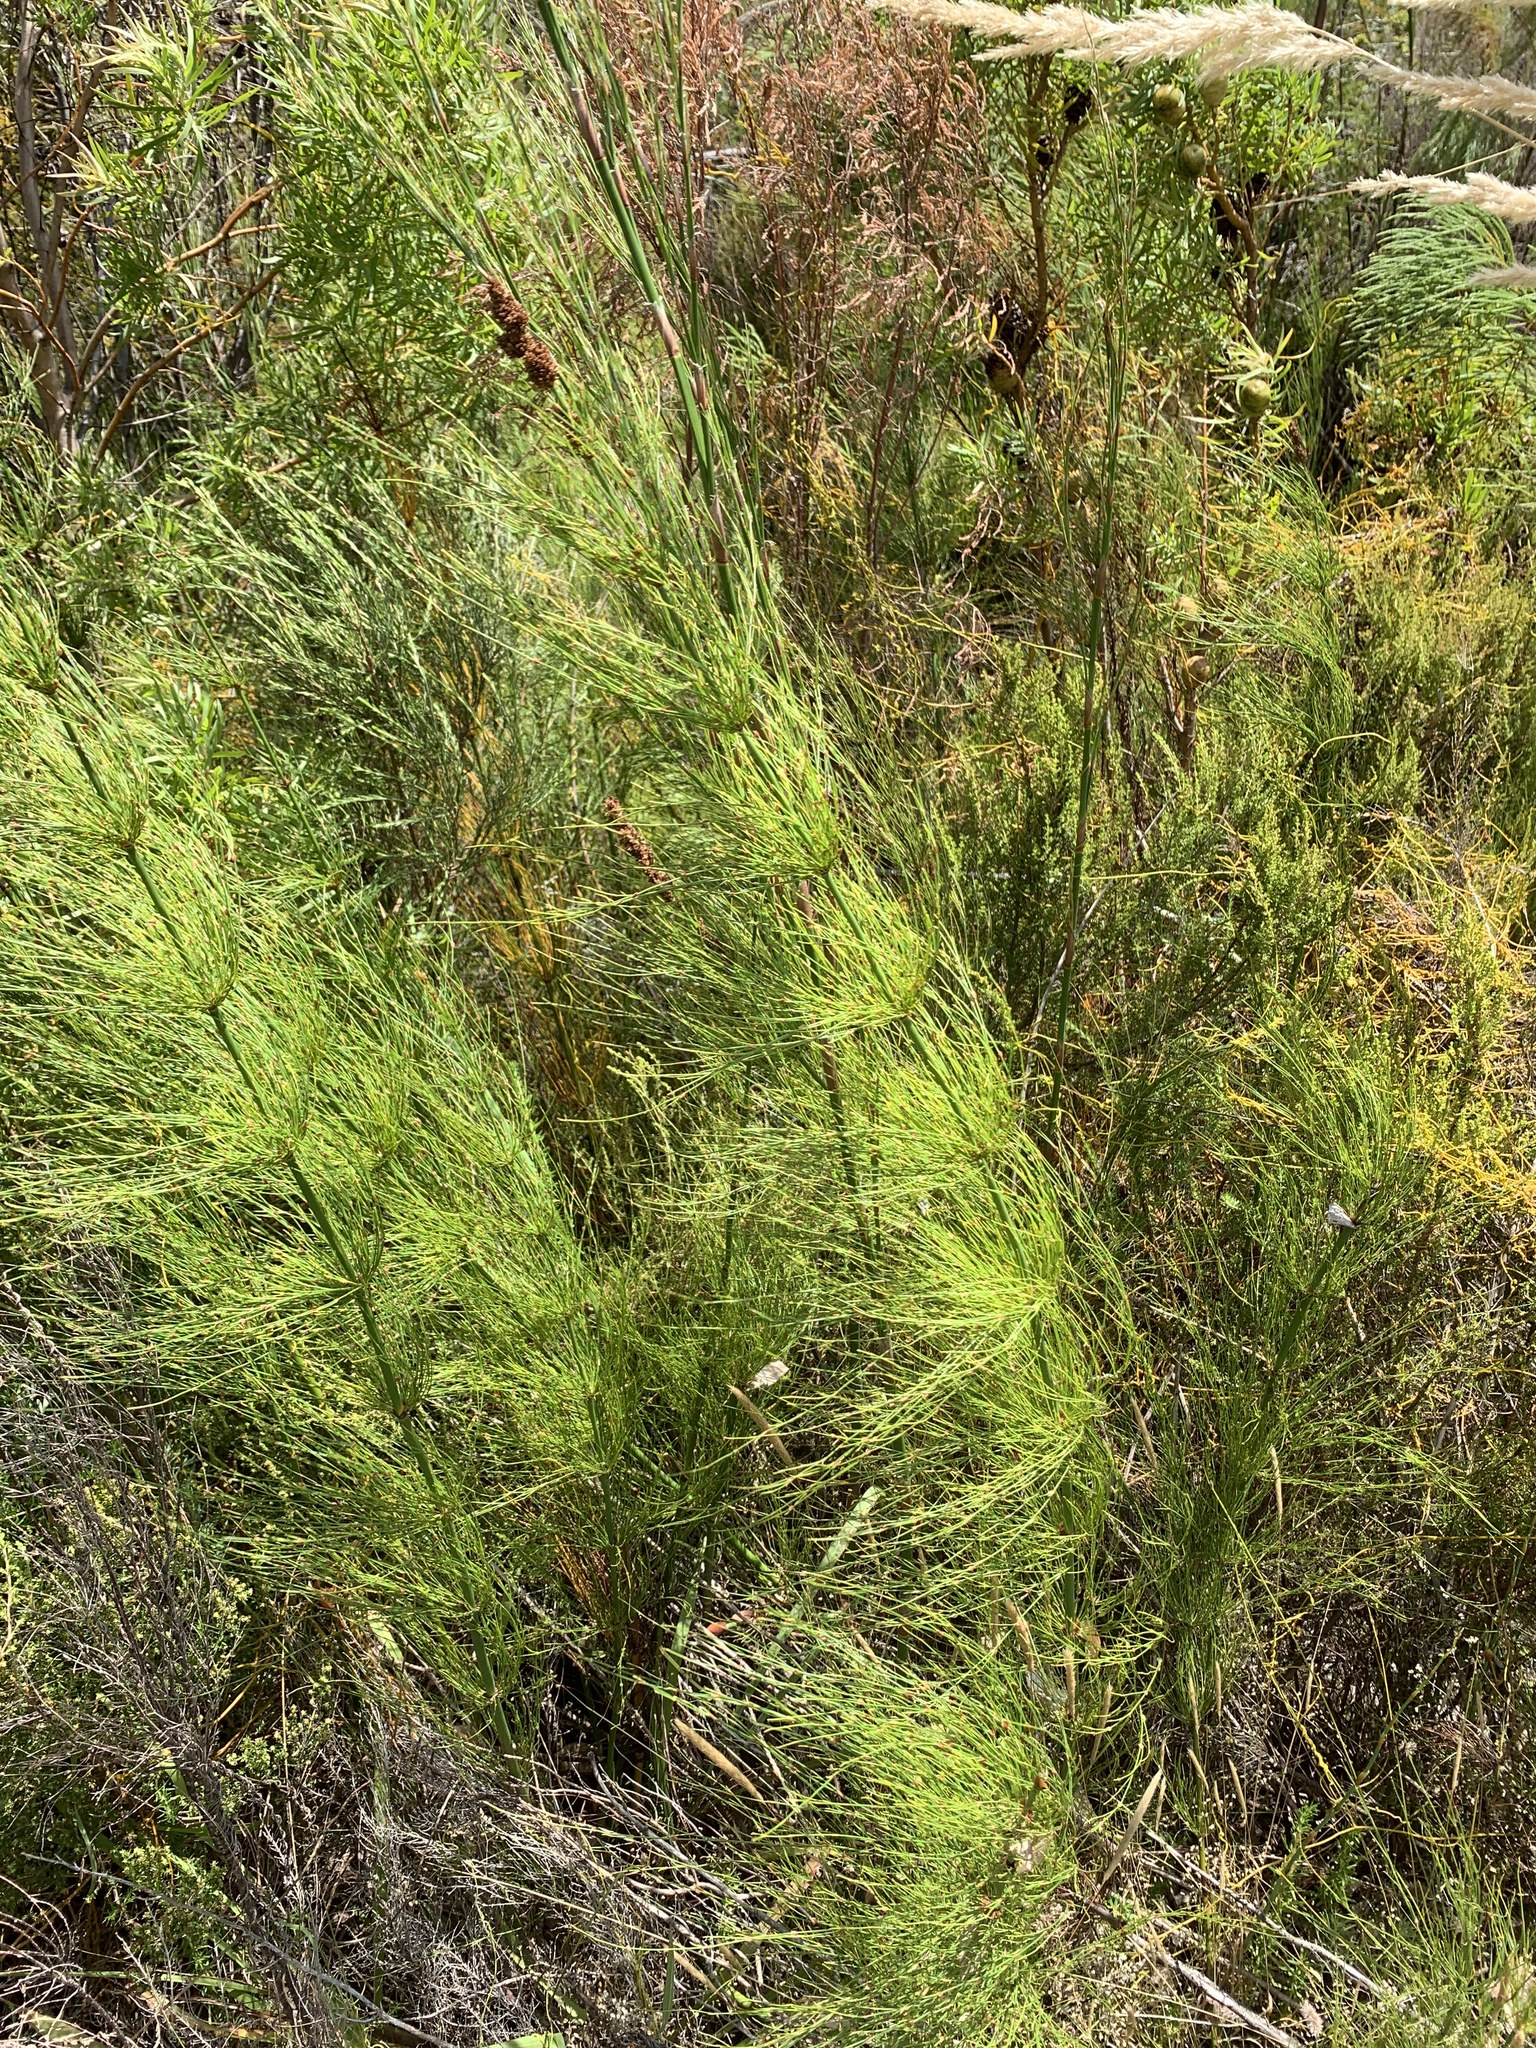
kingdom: Plantae
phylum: Tracheophyta
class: Liliopsida
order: Poales
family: Restionaceae
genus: Elegia
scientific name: Elegia capensis
